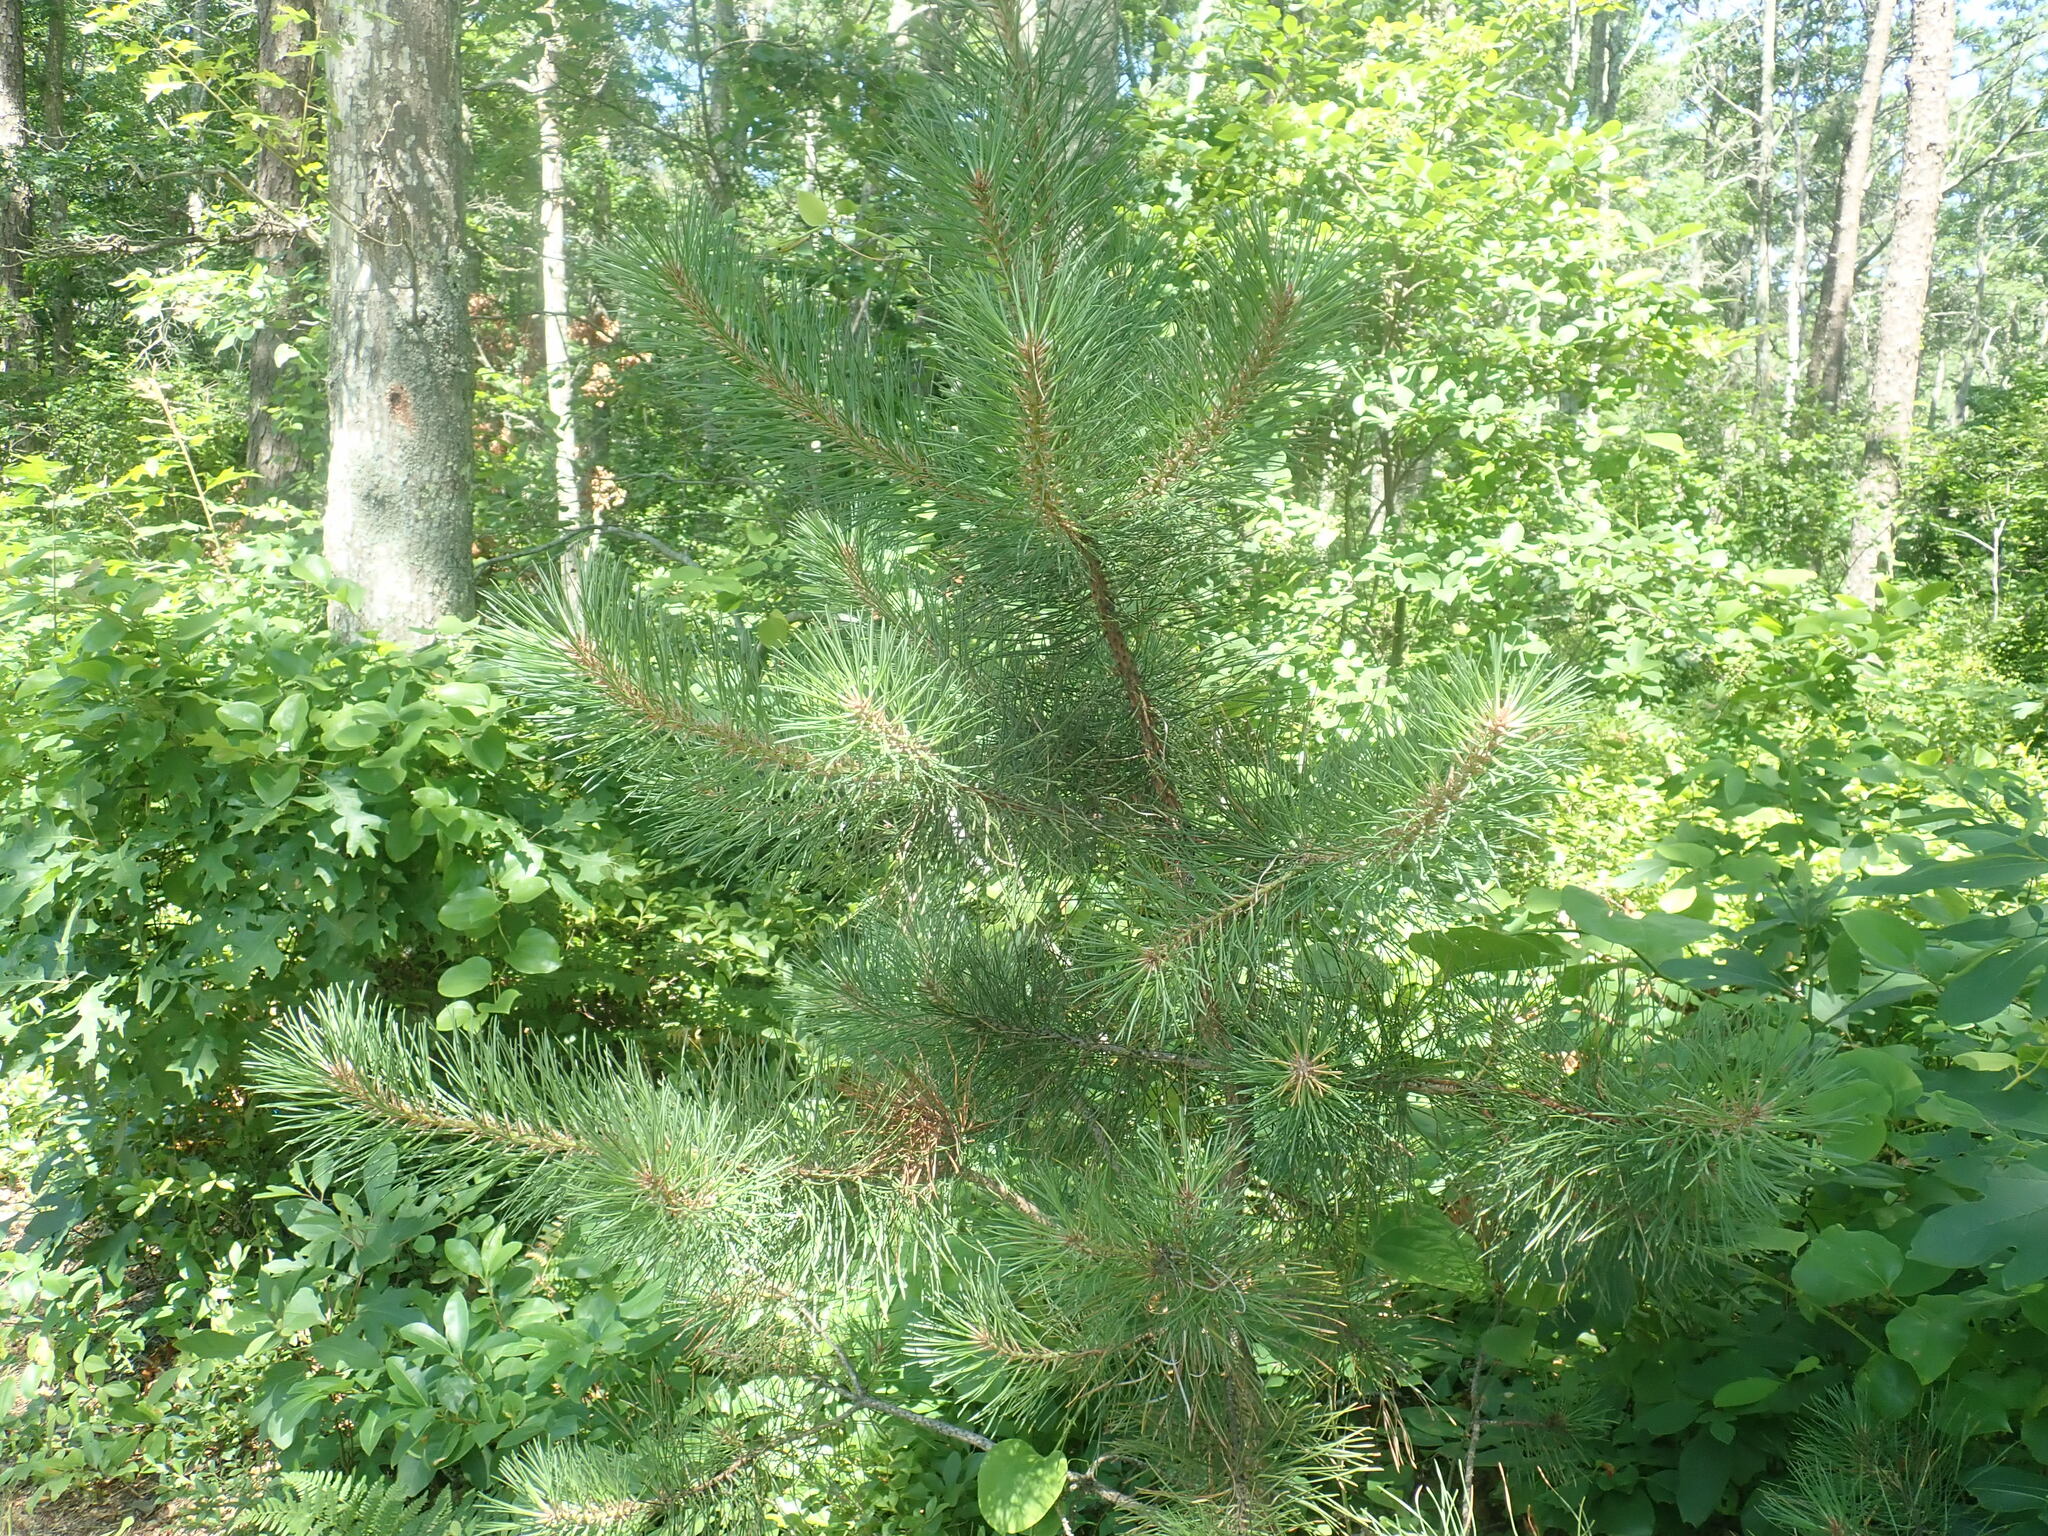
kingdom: Plantae
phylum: Tracheophyta
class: Pinopsida
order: Pinales
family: Pinaceae
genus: Pinus
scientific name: Pinus rigida
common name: Pitch pine
